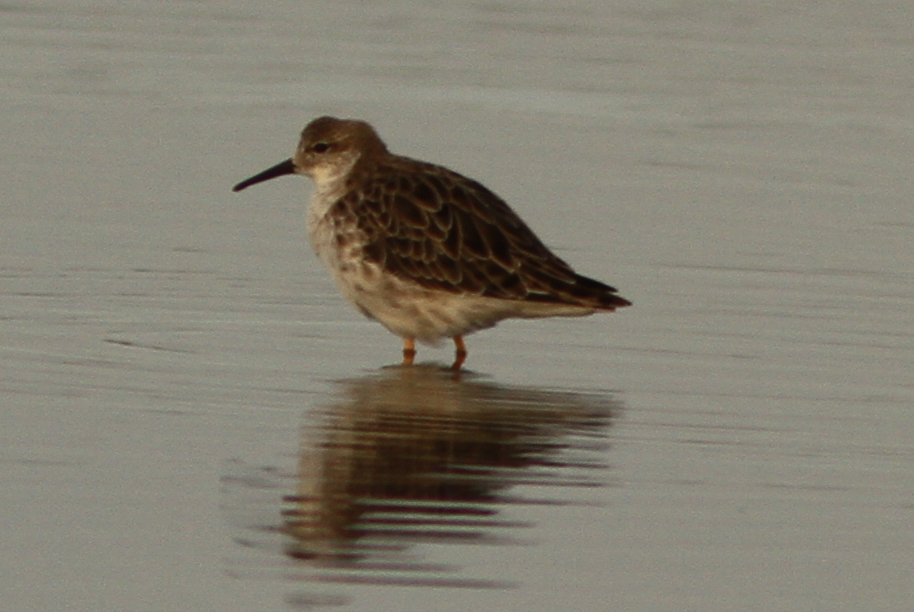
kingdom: Animalia
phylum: Chordata
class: Aves
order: Charadriiformes
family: Scolopacidae
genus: Calidris
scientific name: Calidris pugnax
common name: Ruff
